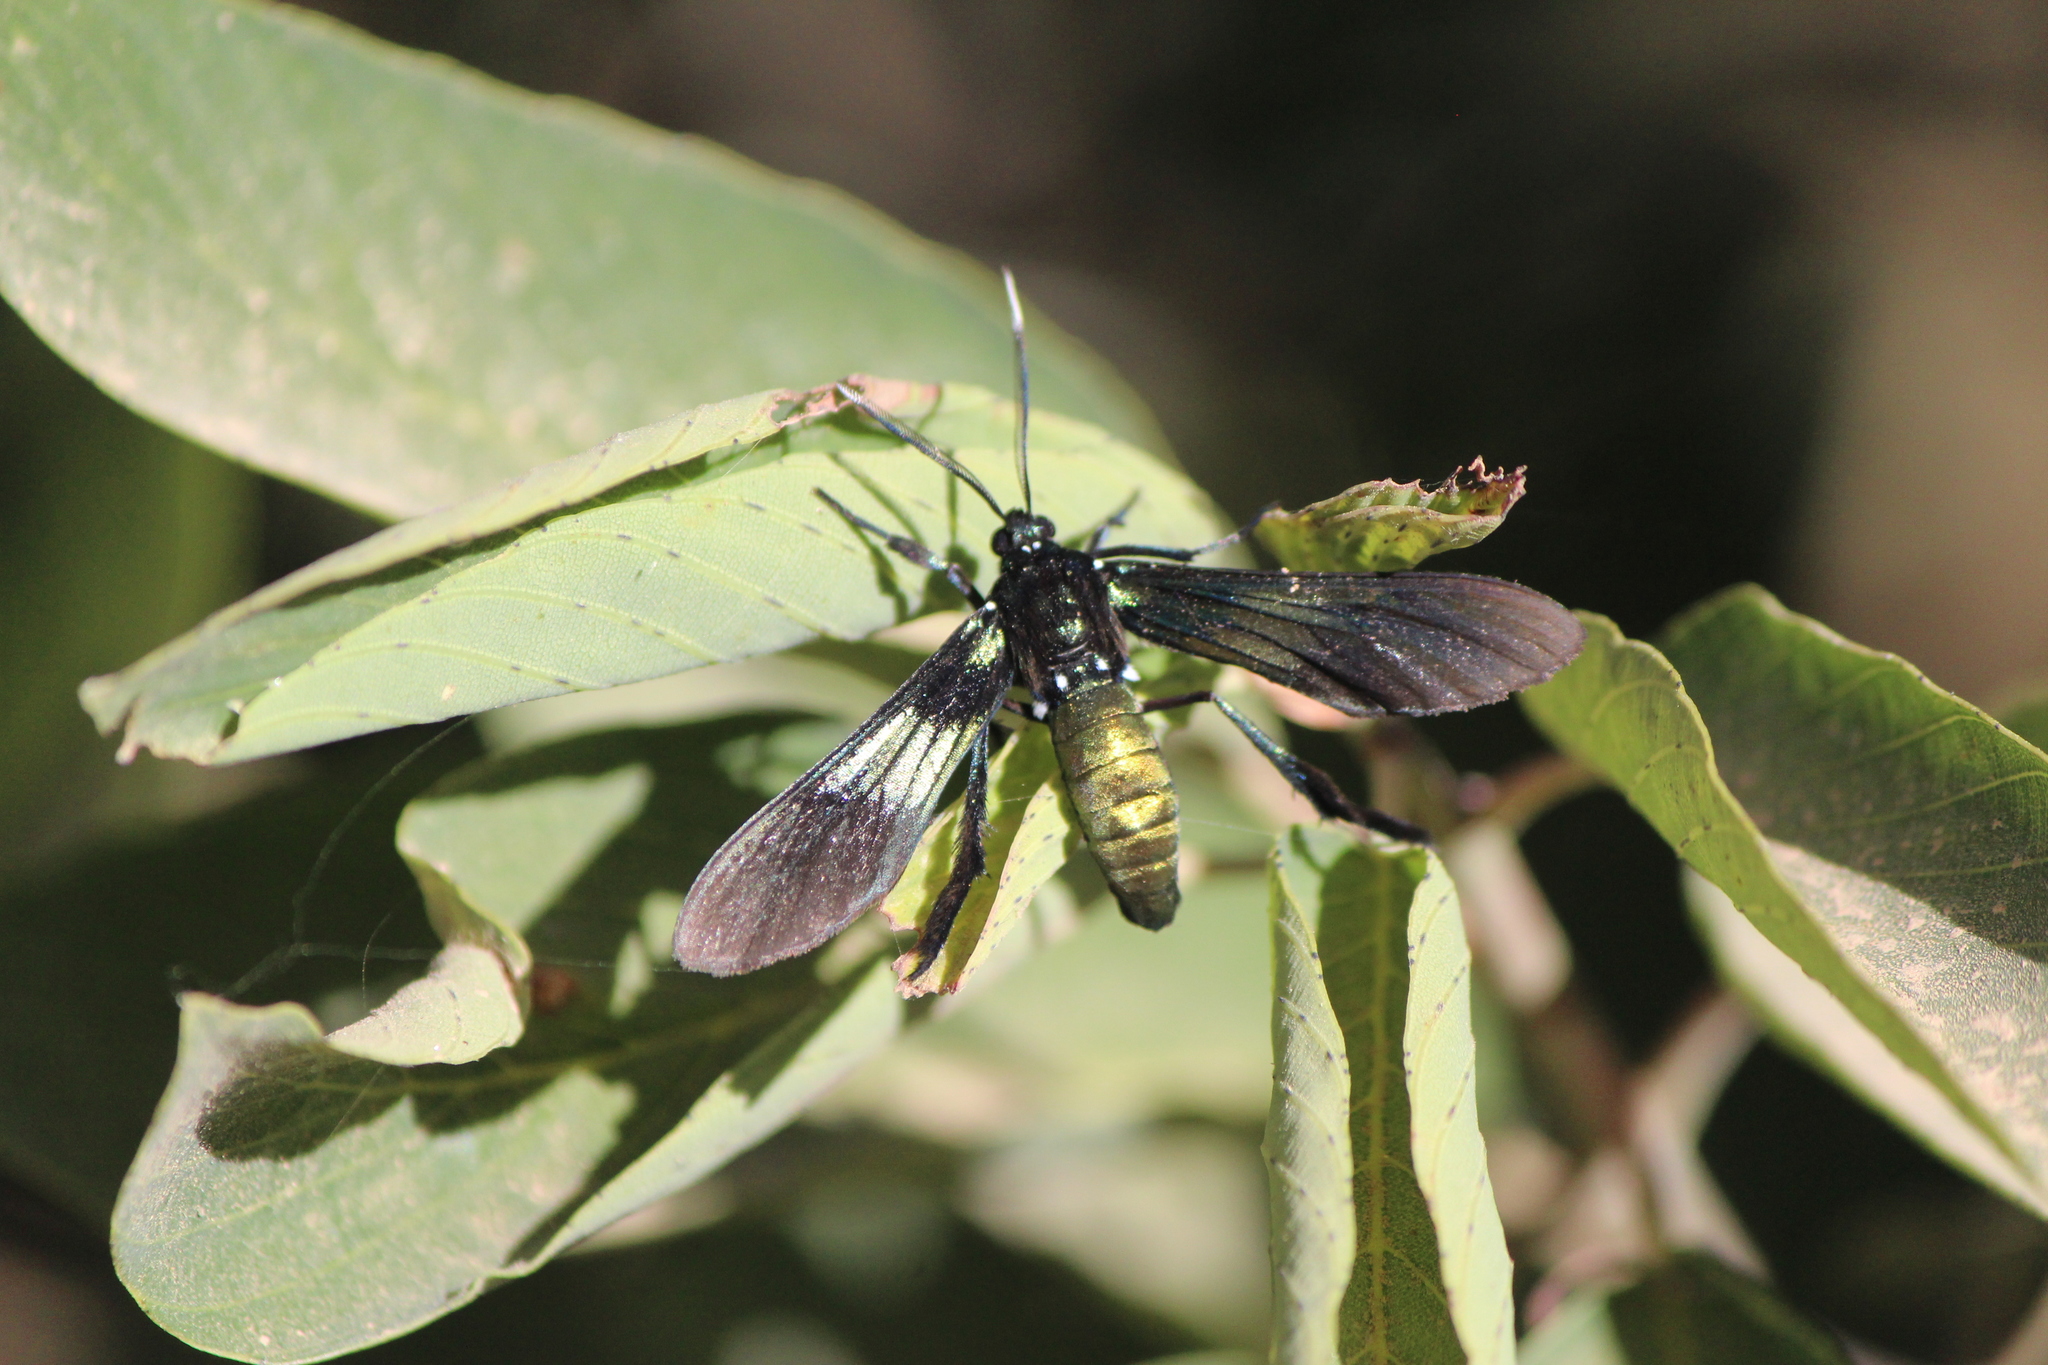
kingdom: Animalia
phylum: Arthropoda
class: Insecta
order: Lepidoptera
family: Erebidae
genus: Macrocneme
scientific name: Macrocneme chrysitis
